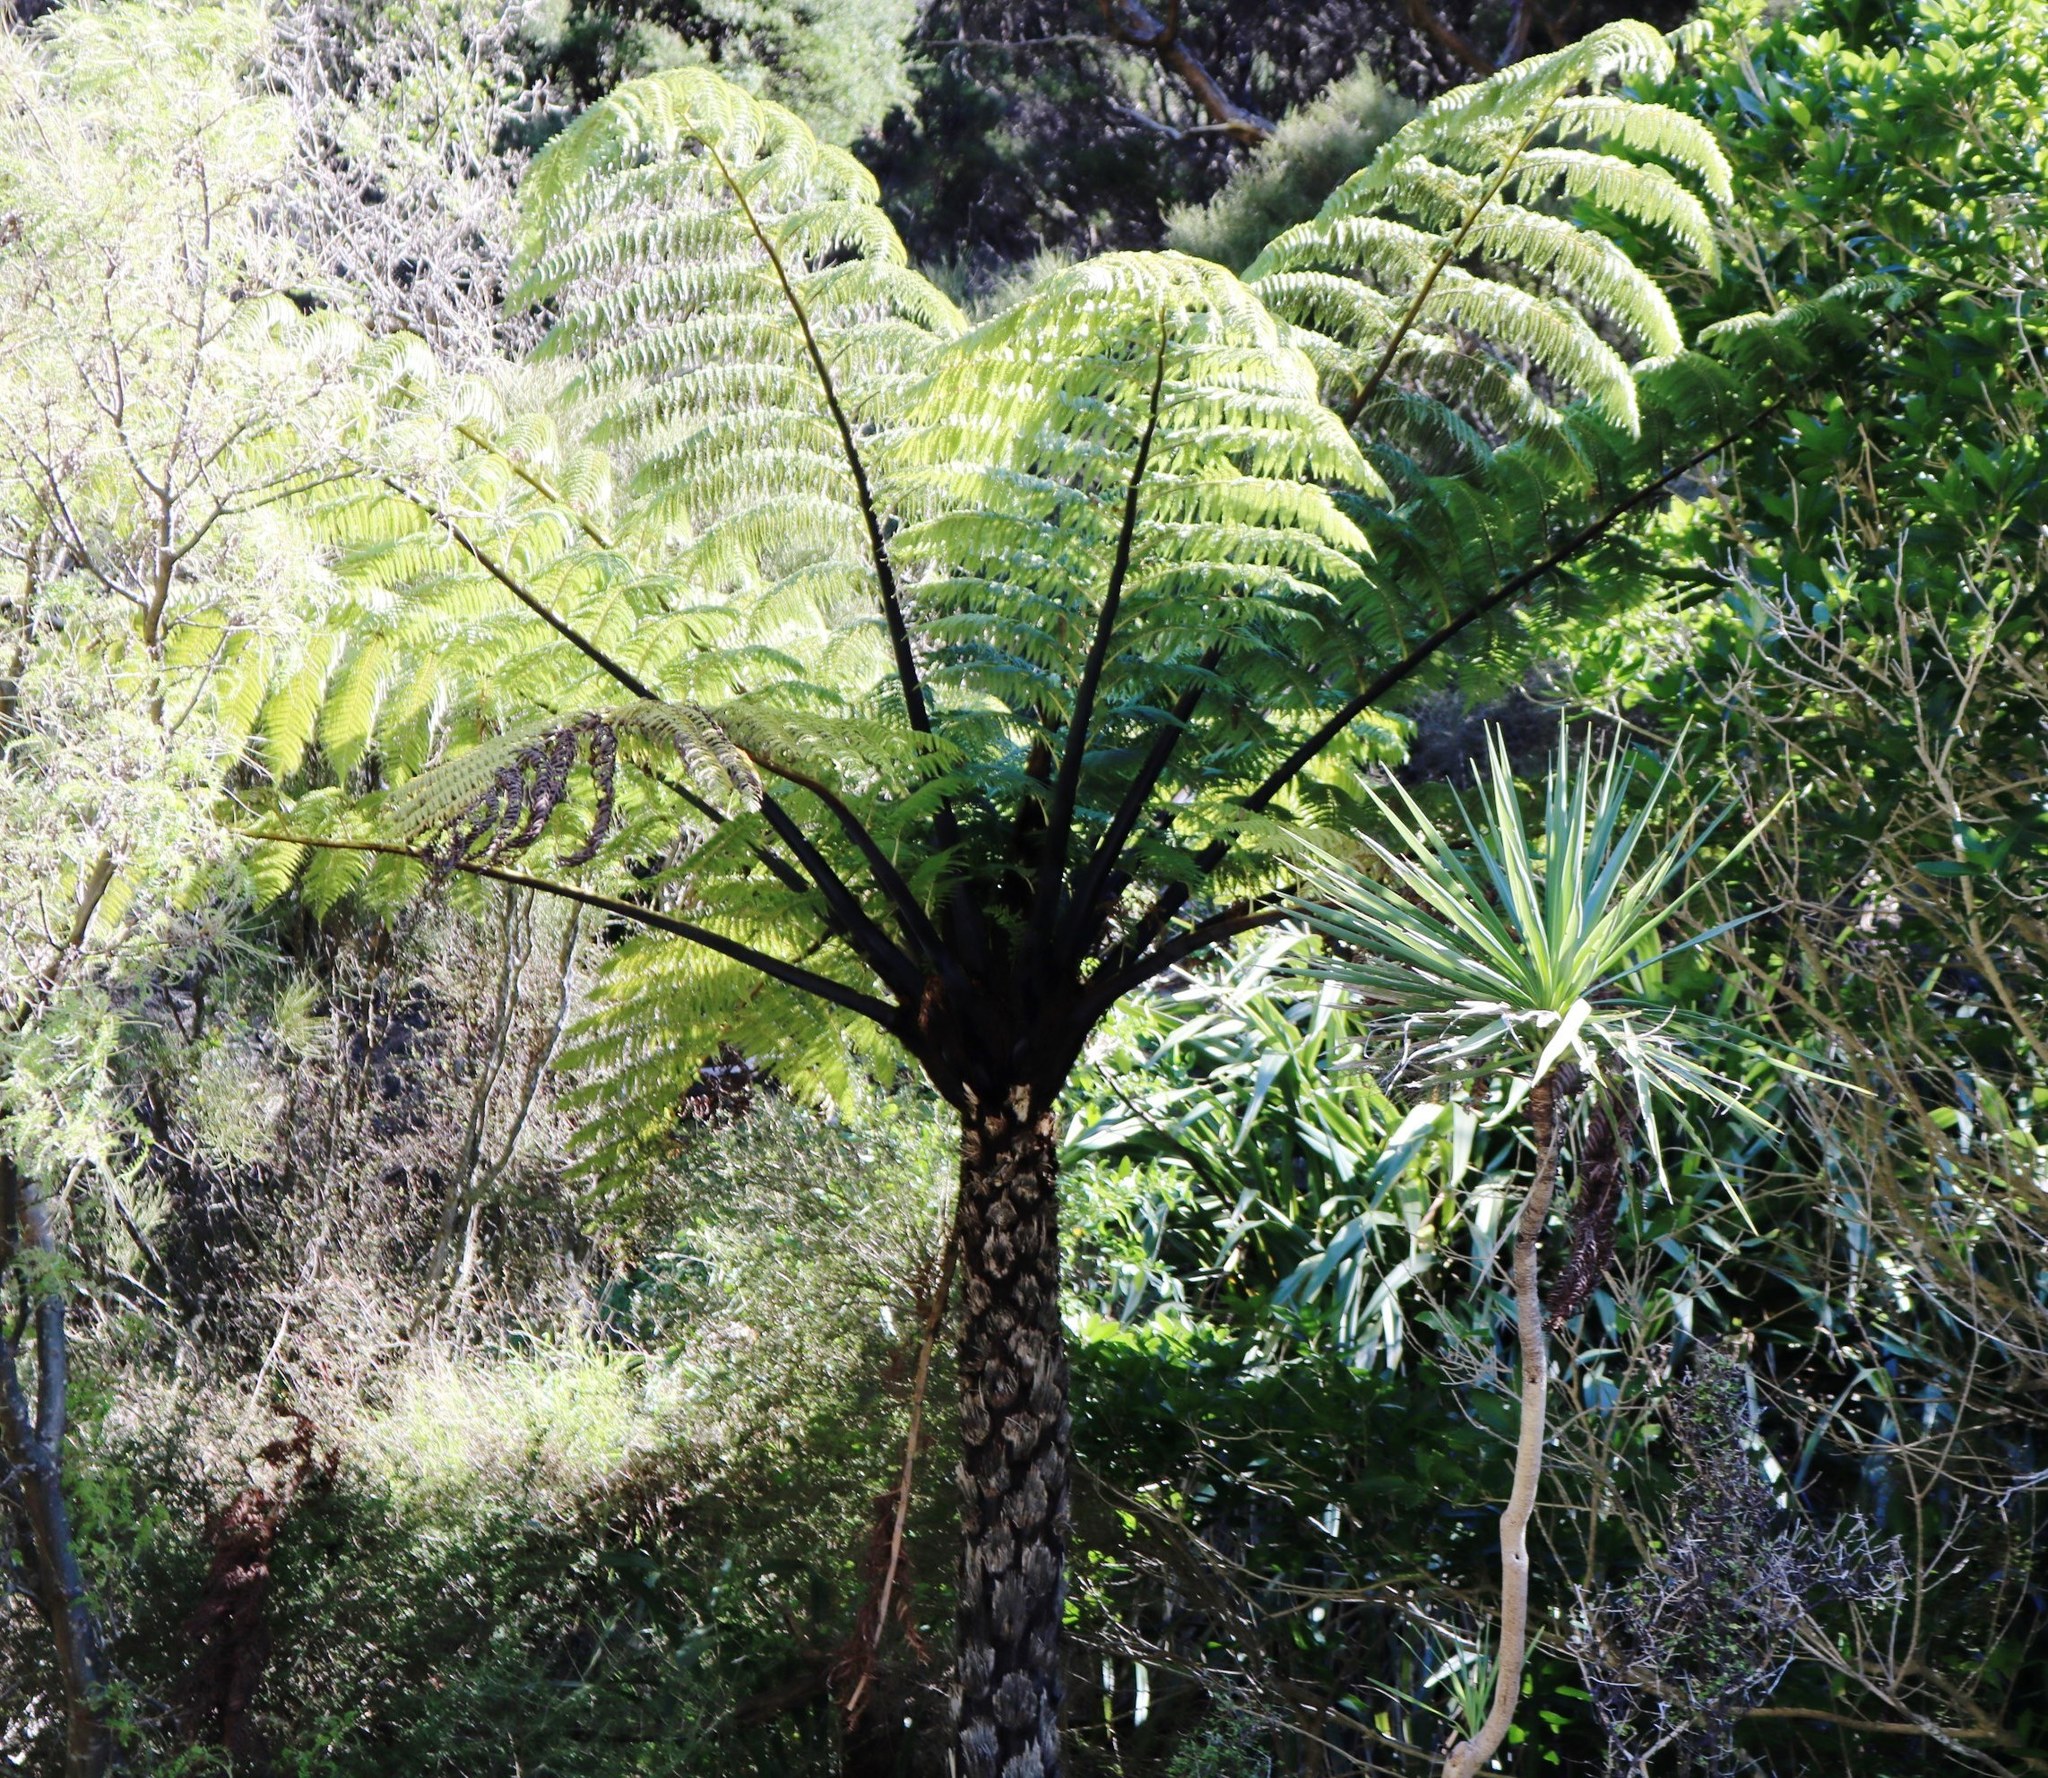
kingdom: Plantae
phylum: Tracheophyta
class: Polypodiopsida
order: Cyatheales
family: Cyatheaceae
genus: Sphaeropteris
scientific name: Sphaeropteris medullaris
